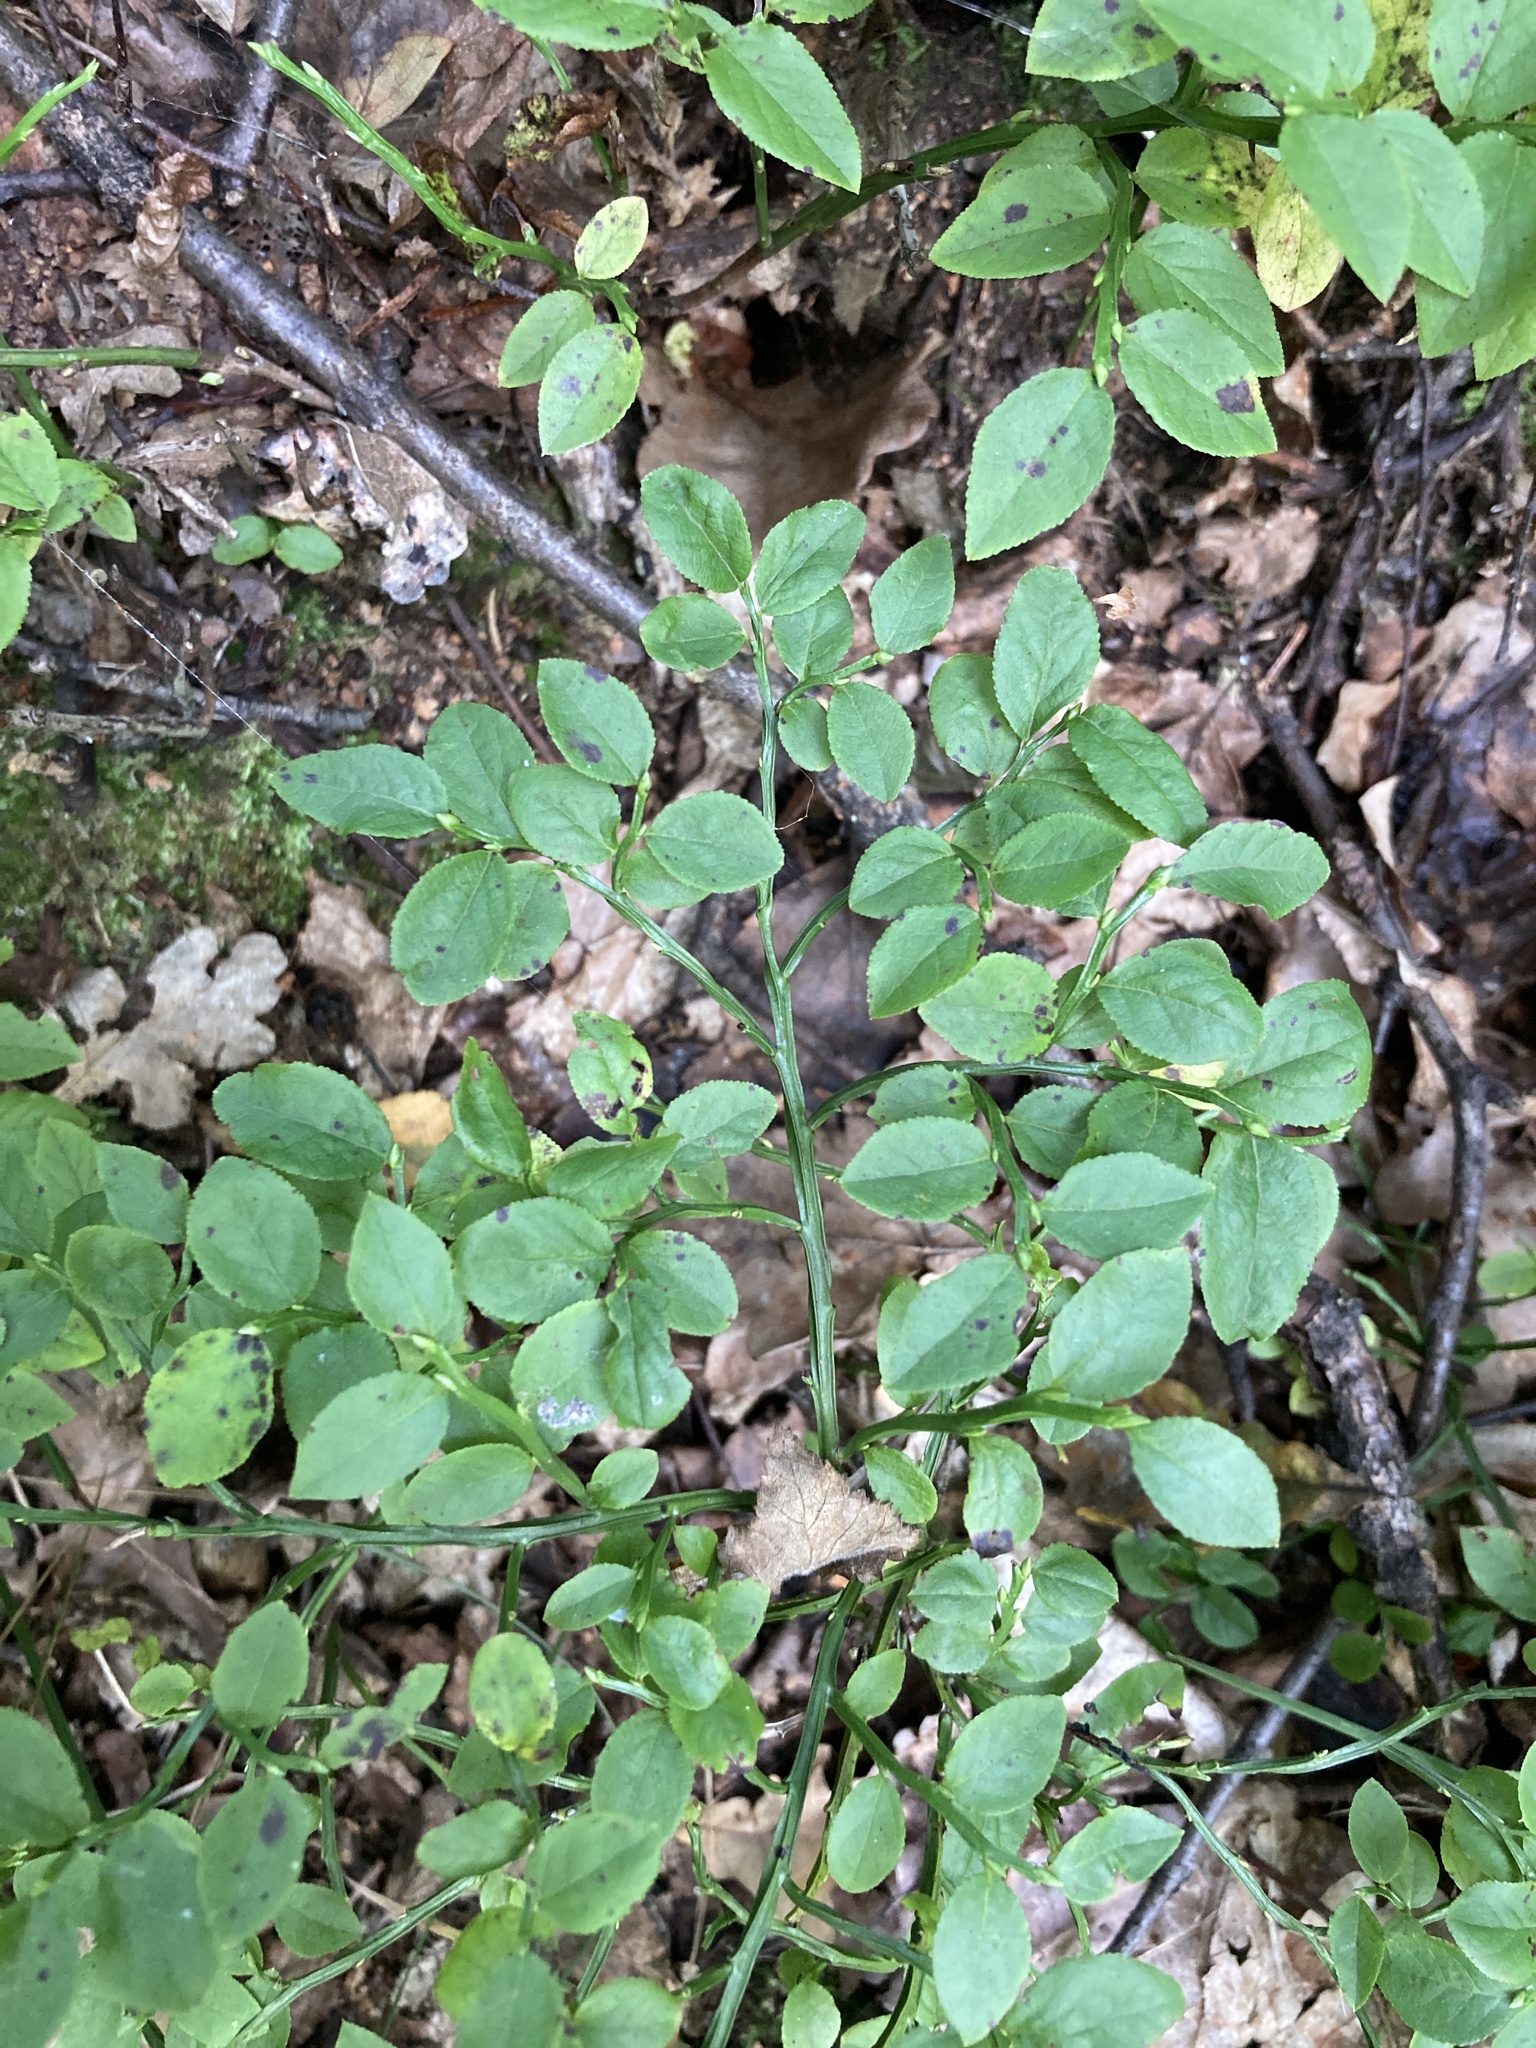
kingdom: Plantae
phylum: Tracheophyta
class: Magnoliopsida
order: Ericales
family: Ericaceae
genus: Vaccinium
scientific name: Vaccinium myrtillus
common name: Bilberry
